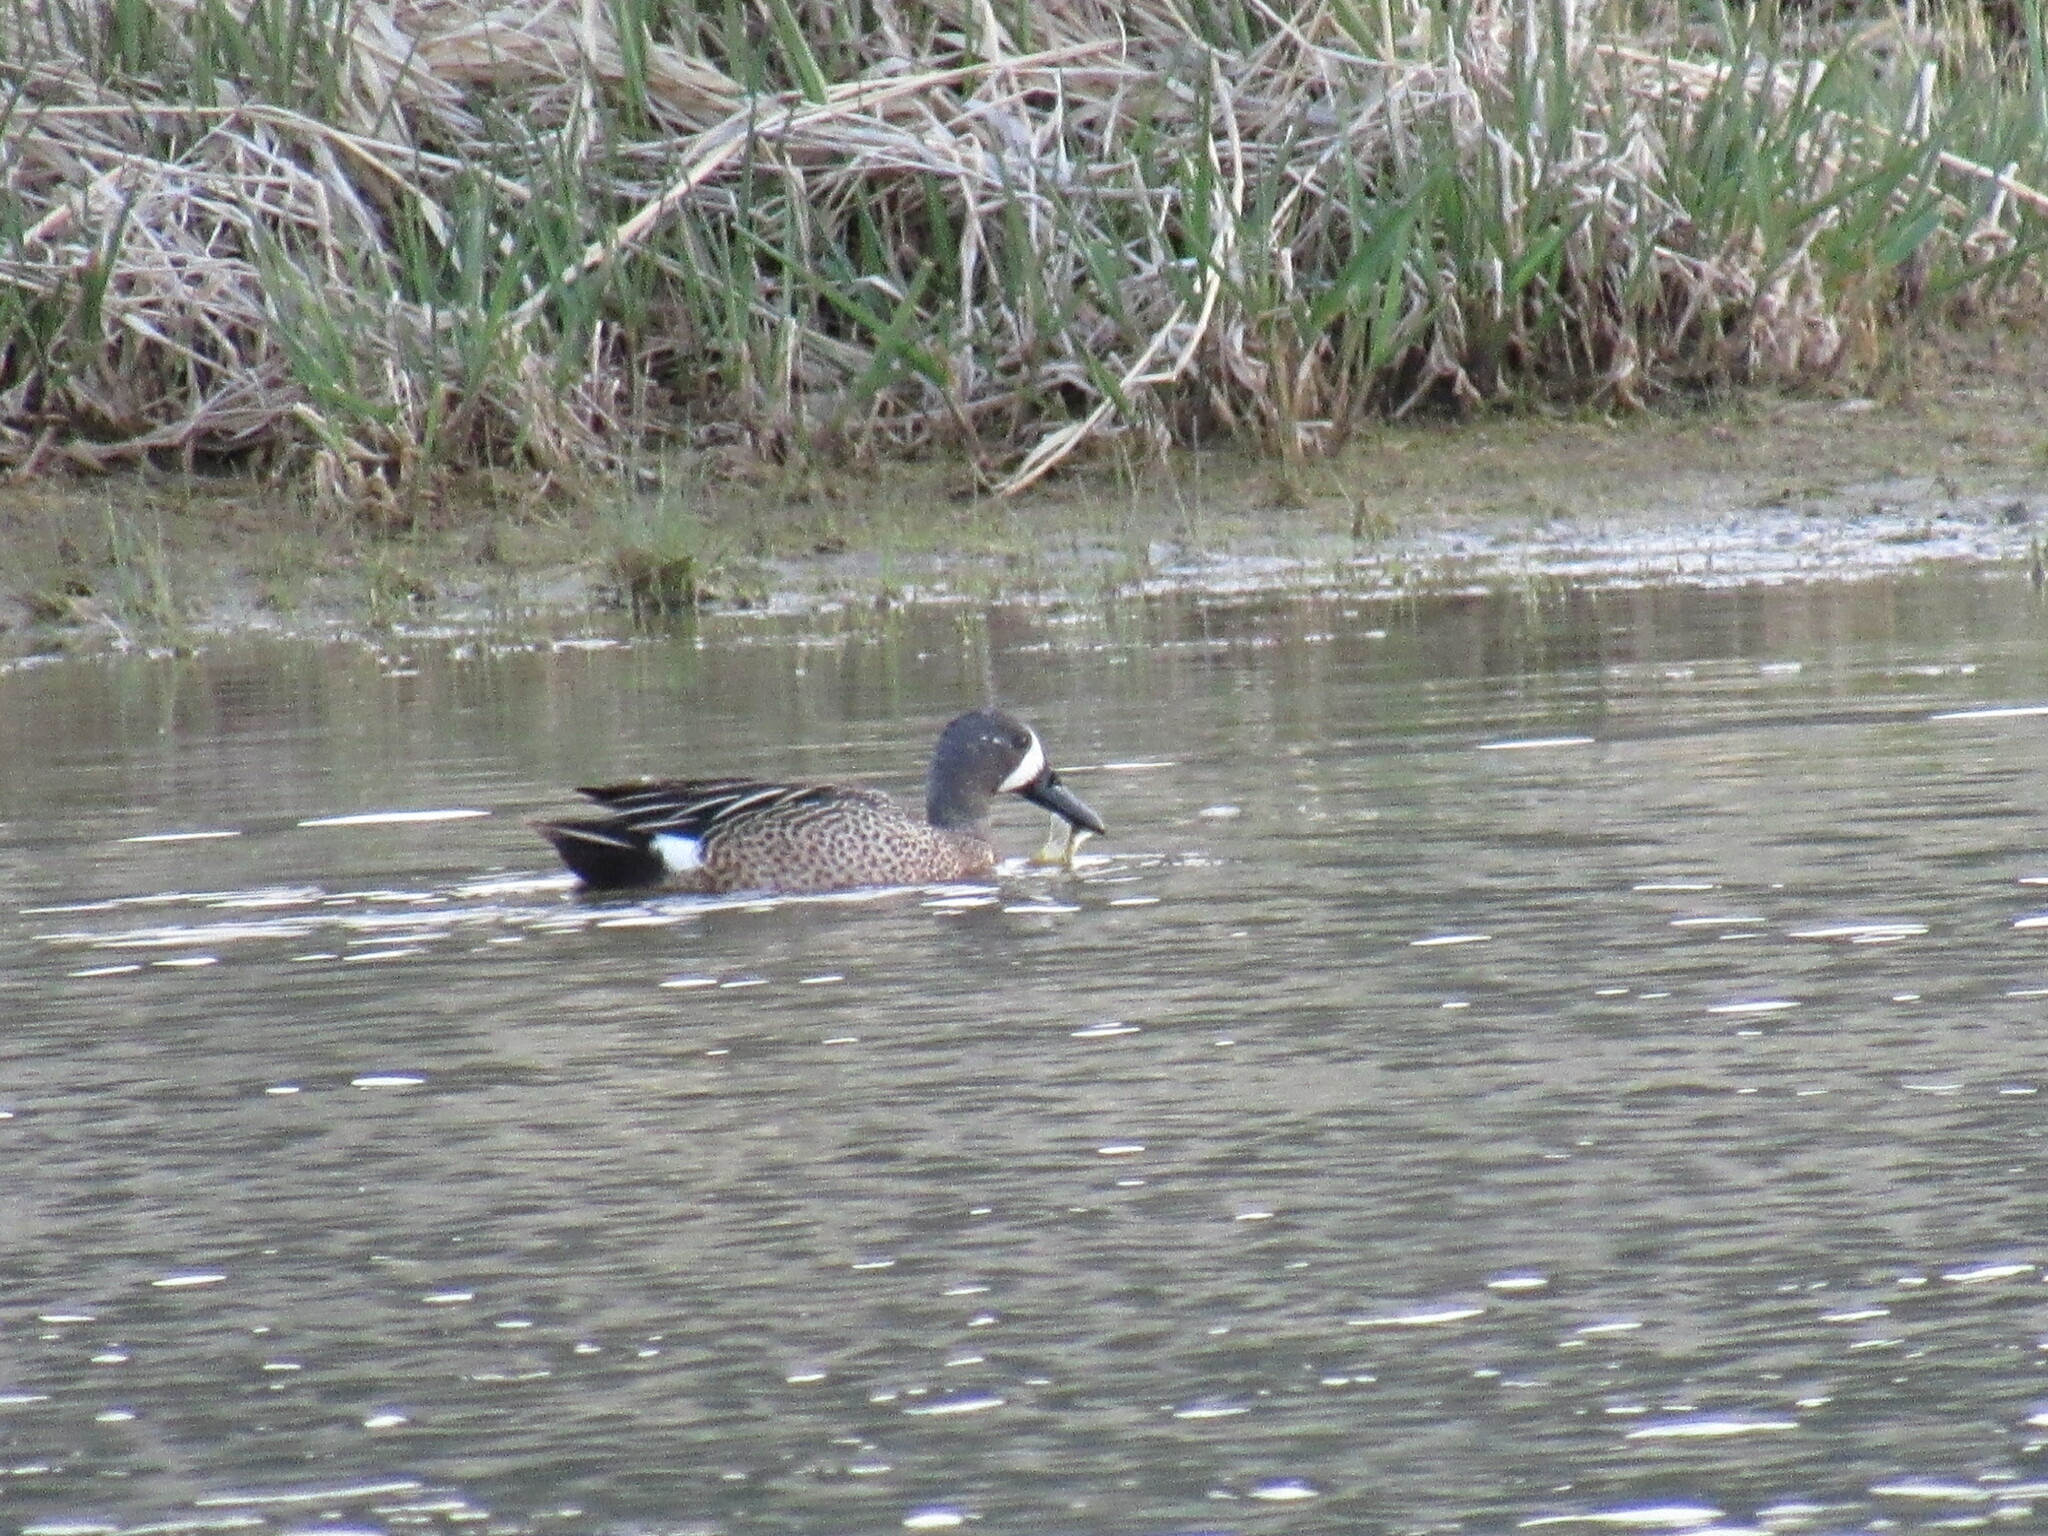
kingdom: Animalia
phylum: Chordata
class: Aves
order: Anseriformes
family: Anatidae
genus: Spatula
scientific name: Spatula discors
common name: Blue-winged teal
